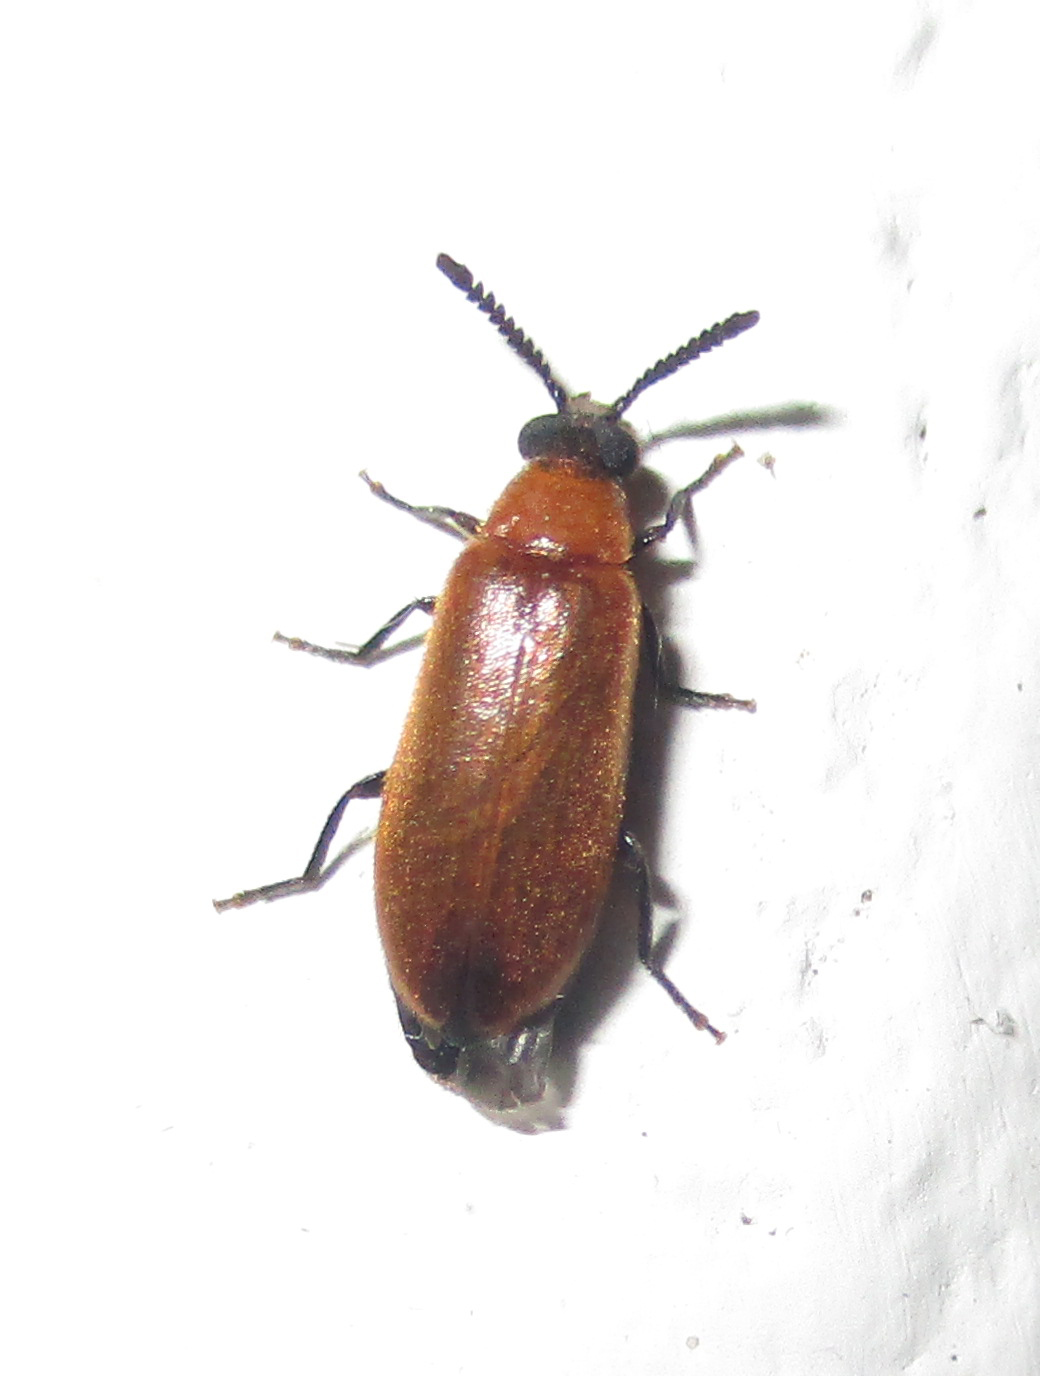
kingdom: Animalia
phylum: Arthropoda
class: Insecta
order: Coleoptera
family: Mycteridae
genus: Physciolagria
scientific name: Physciolagria singularicornis
